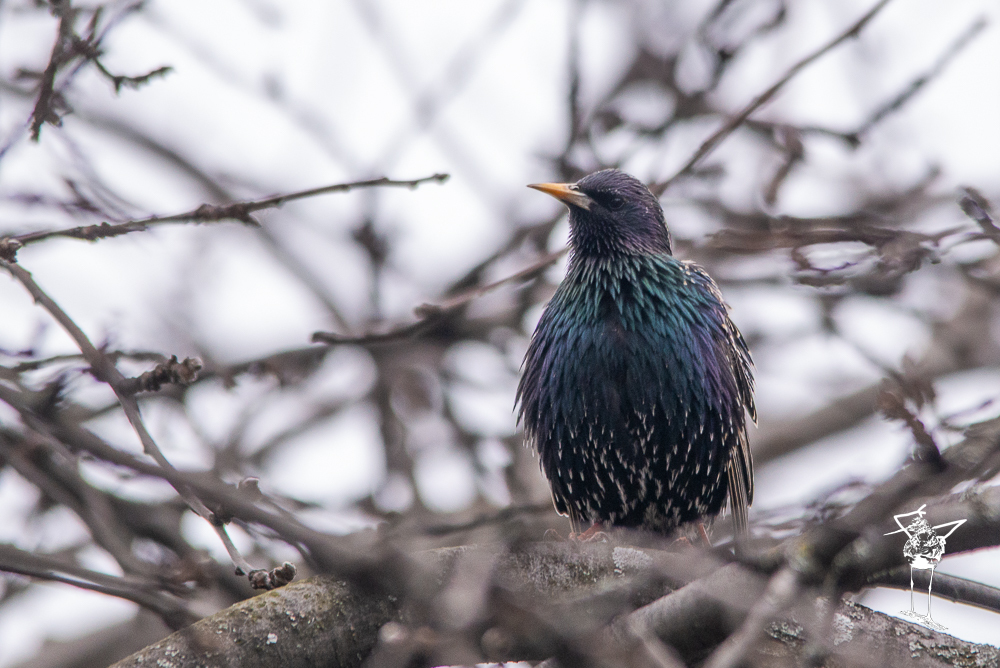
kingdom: Animalia
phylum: Chordata
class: Aves
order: Passeriformes
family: Sturnidae
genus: Sturnus
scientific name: Sturnus vulgaris
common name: Common starling
